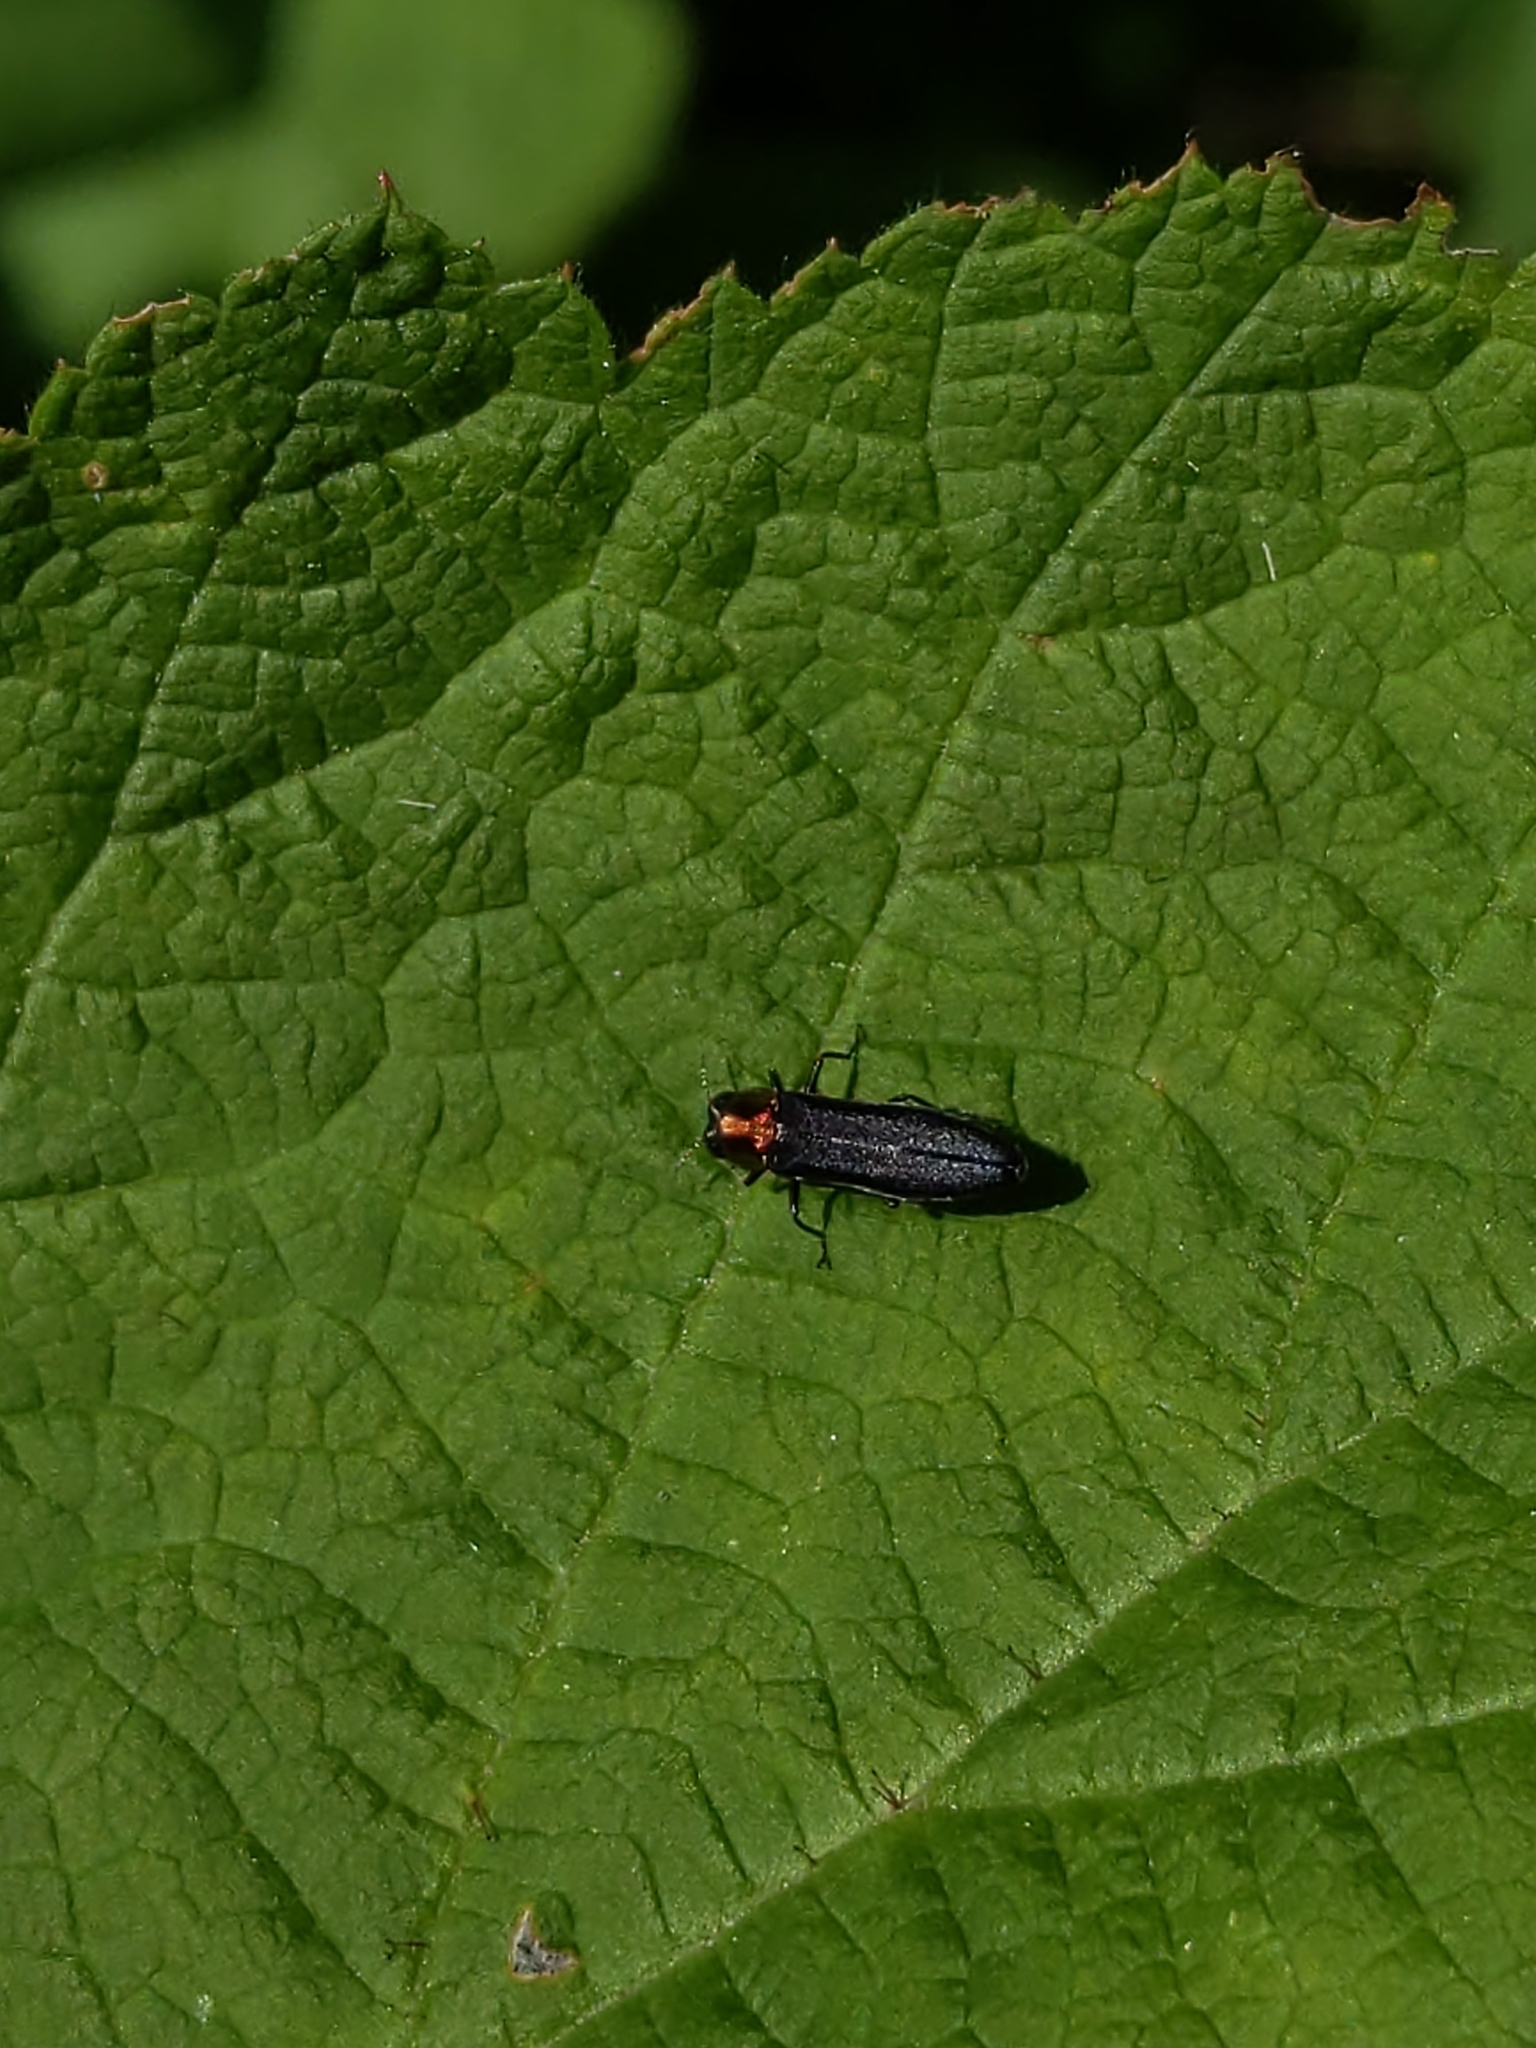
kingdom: Animalia
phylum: Arthropoda
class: Insecta
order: Coleoptera
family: Buprestidae
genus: Agrilus
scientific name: Agrilus ruficollis
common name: Red-necked cane borer beetle
